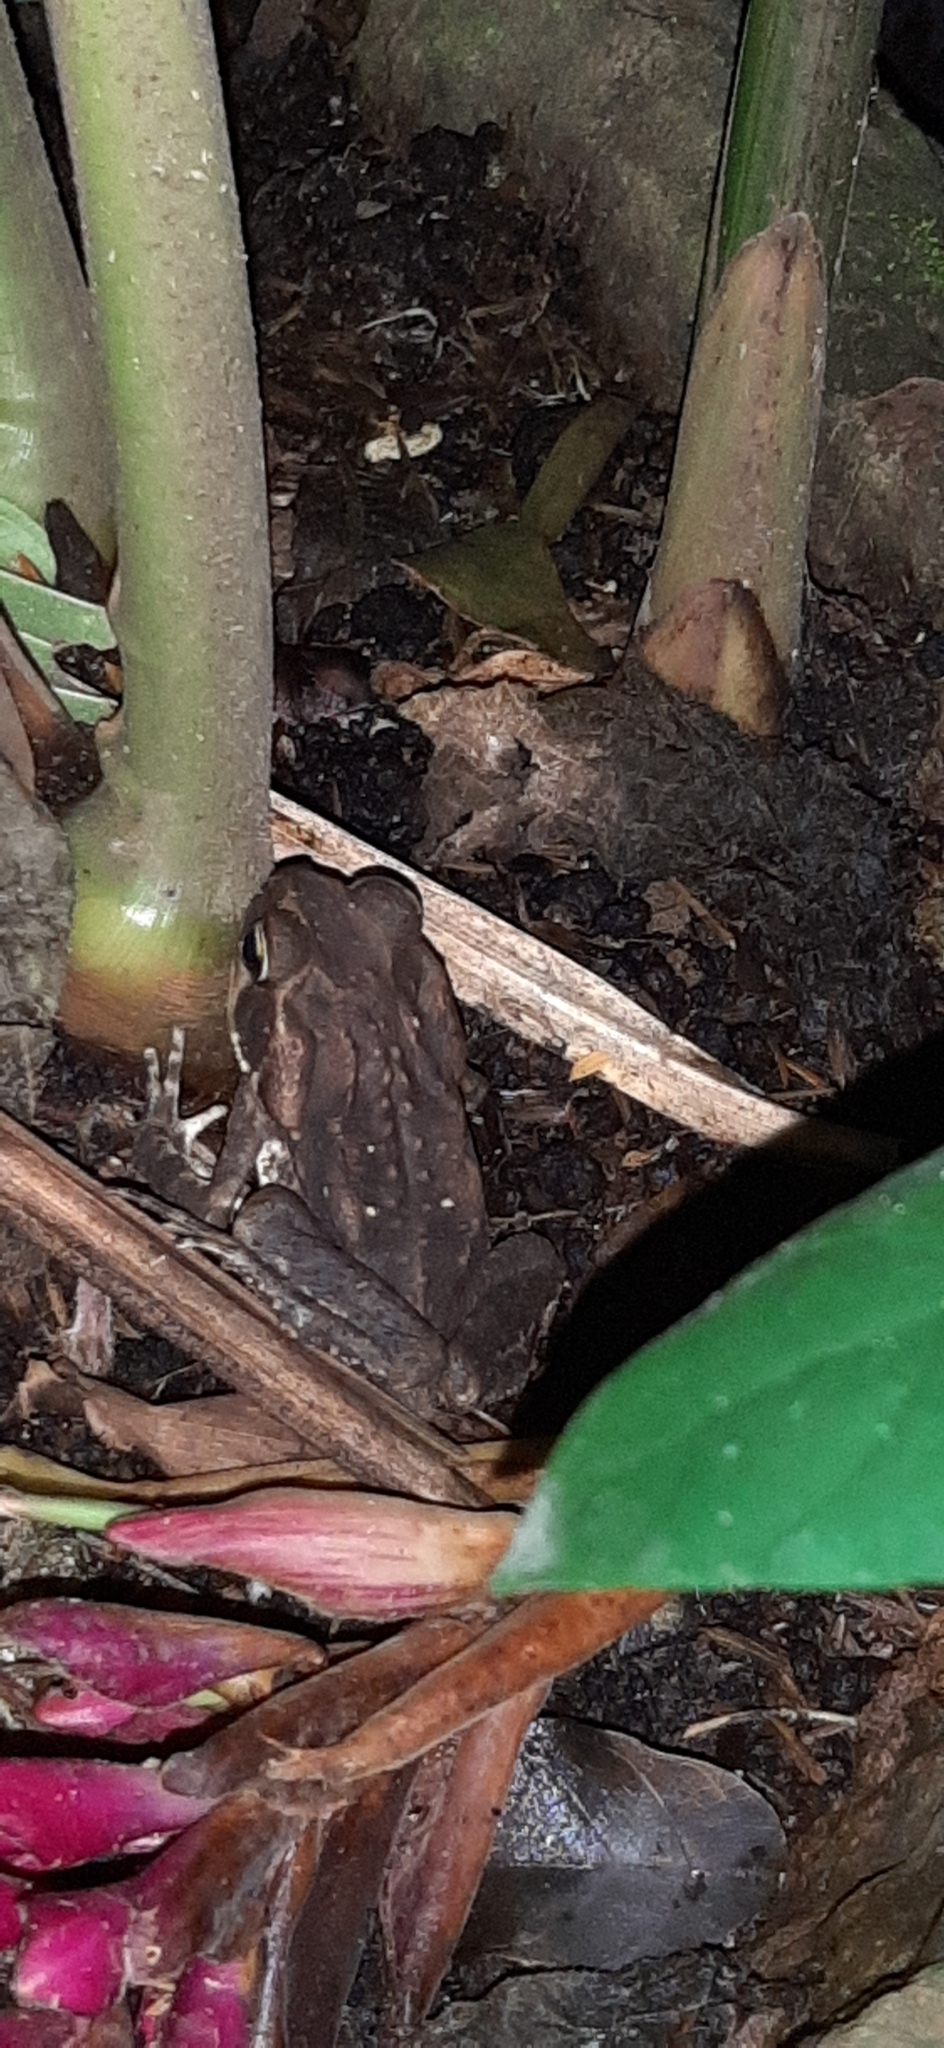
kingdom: Animalia
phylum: Chordata
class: Amphibia
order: Anura
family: Bufonidae
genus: Rhinella
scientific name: Rhinella horribilis
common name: Mesoamerican cane toad
